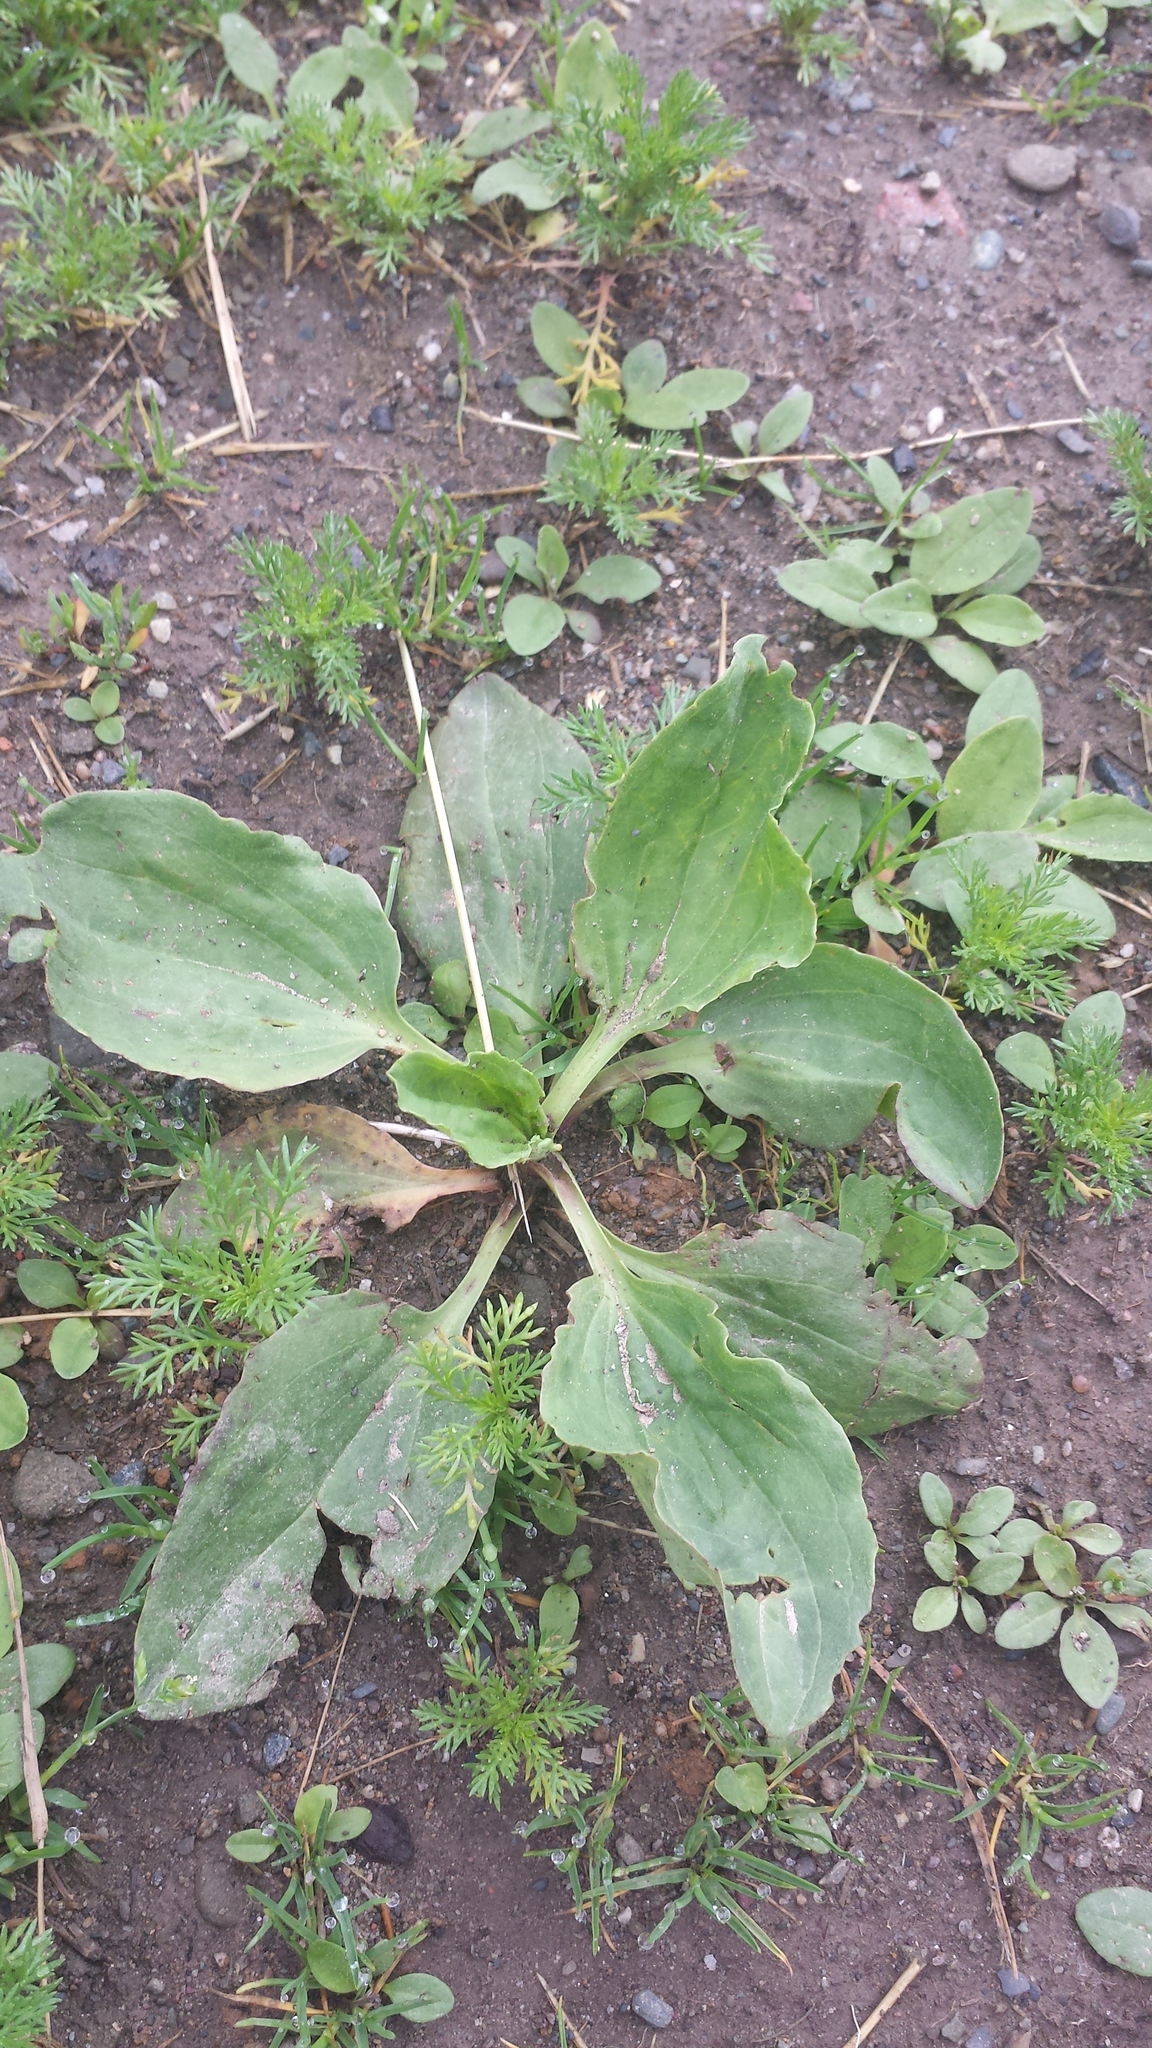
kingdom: Plantae
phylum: Tracheophyta
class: Magnoliopsida
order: Lamiales
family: Plantaginaceae
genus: Plantago
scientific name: Plantago major
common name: Common plantain
